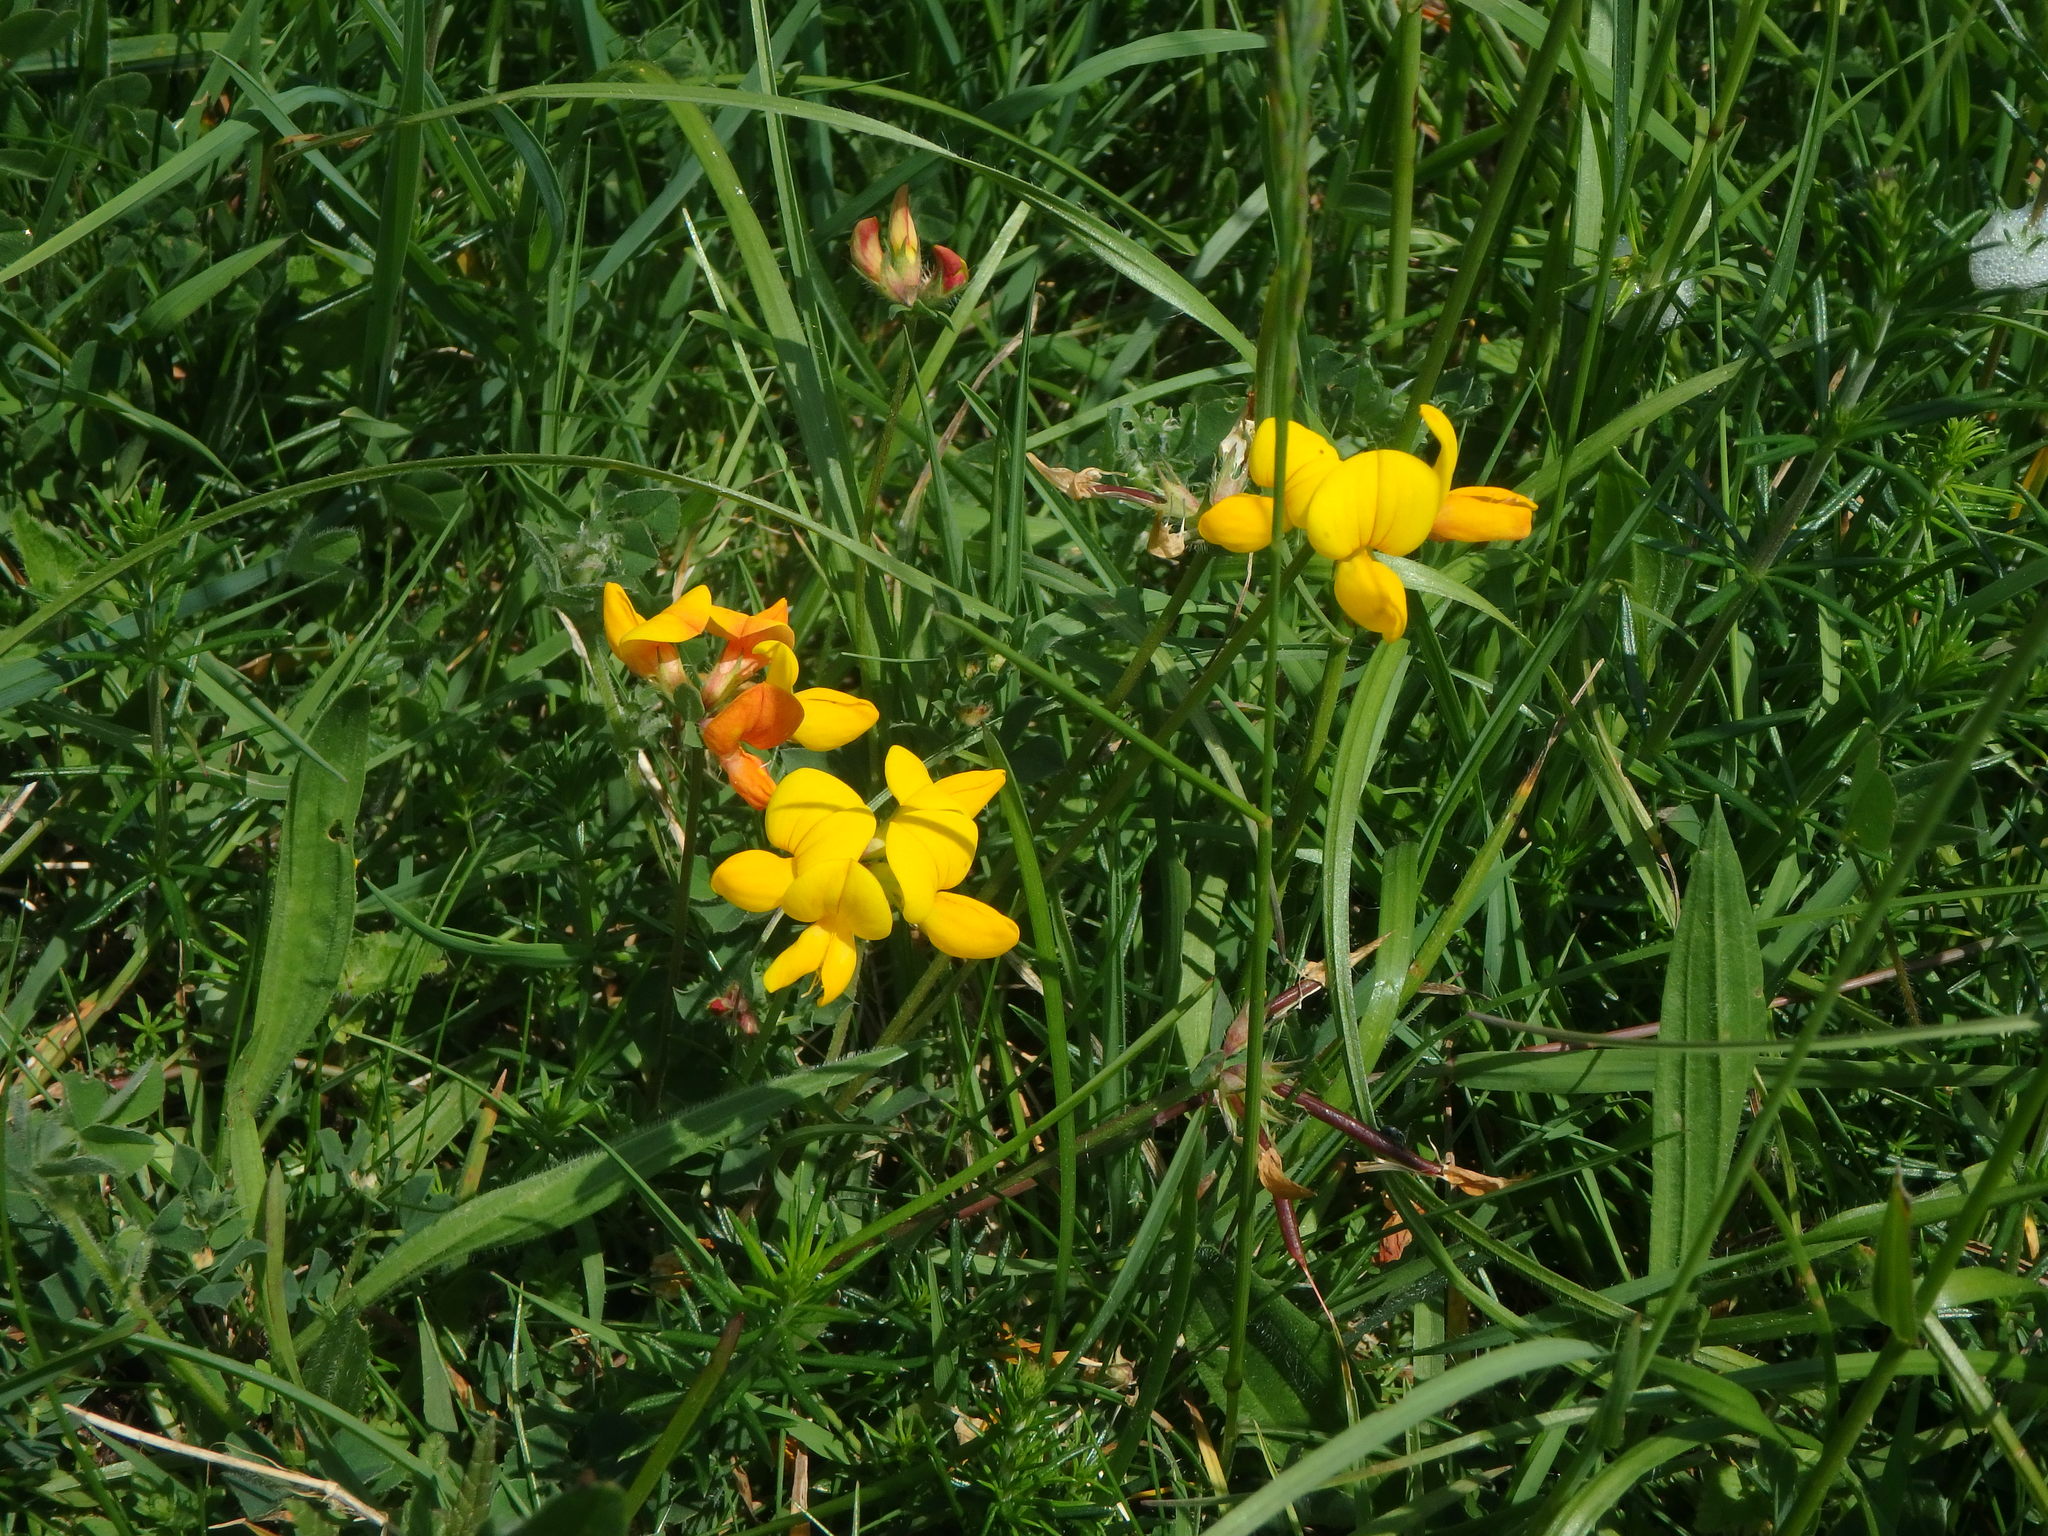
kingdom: Plantae
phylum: Tracheophyta
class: Magnoliopsida
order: Fabales
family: Fabaceae
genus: Lotus
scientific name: Lotus corniculatus
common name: Common bird's-foot-trefoil
